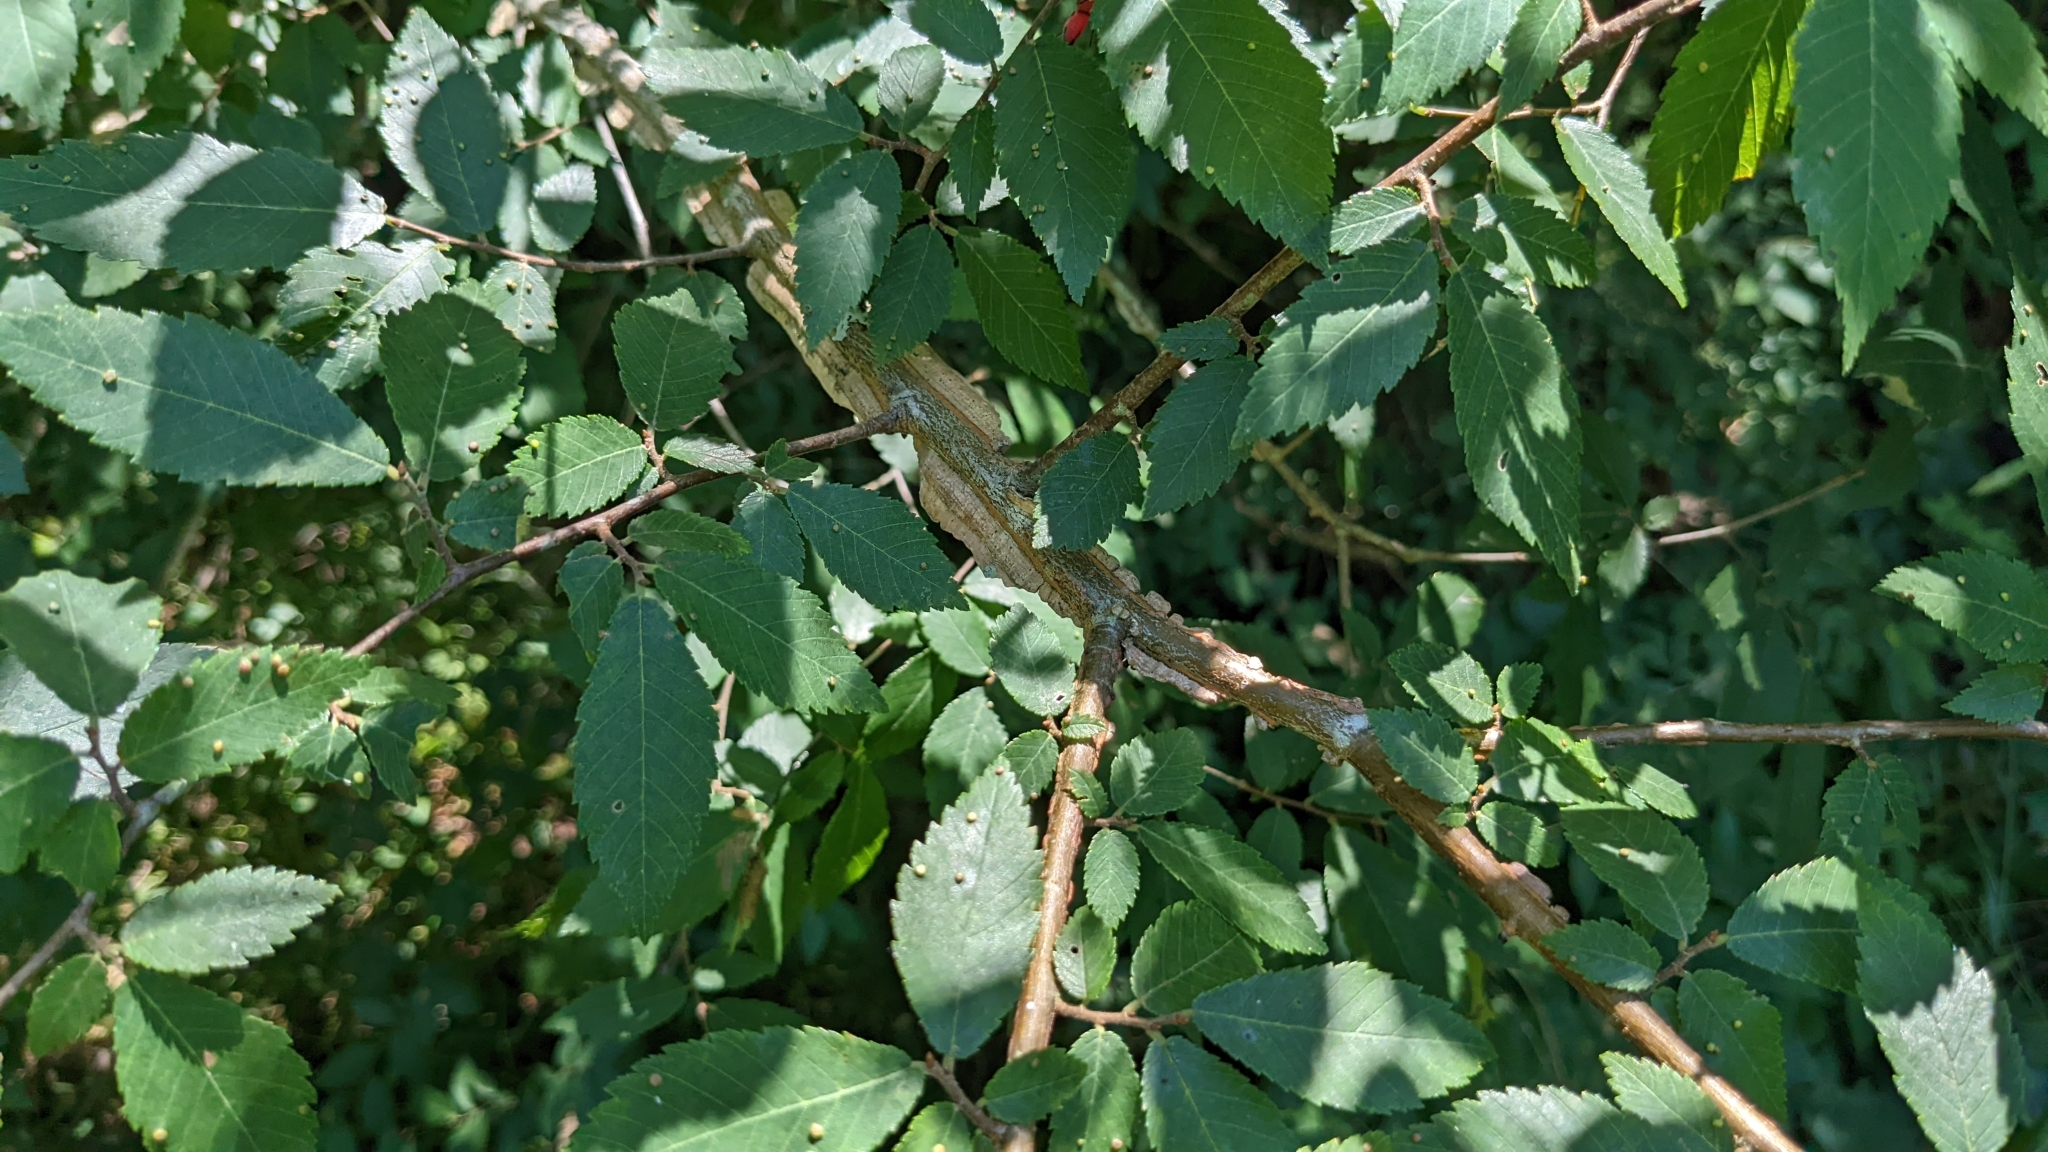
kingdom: Plantae
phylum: Tracheophyta
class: Magnoliopsida
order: Rosales
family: Ulmaceae
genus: Ulmus
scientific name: Ulmus alata
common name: Winged elm
